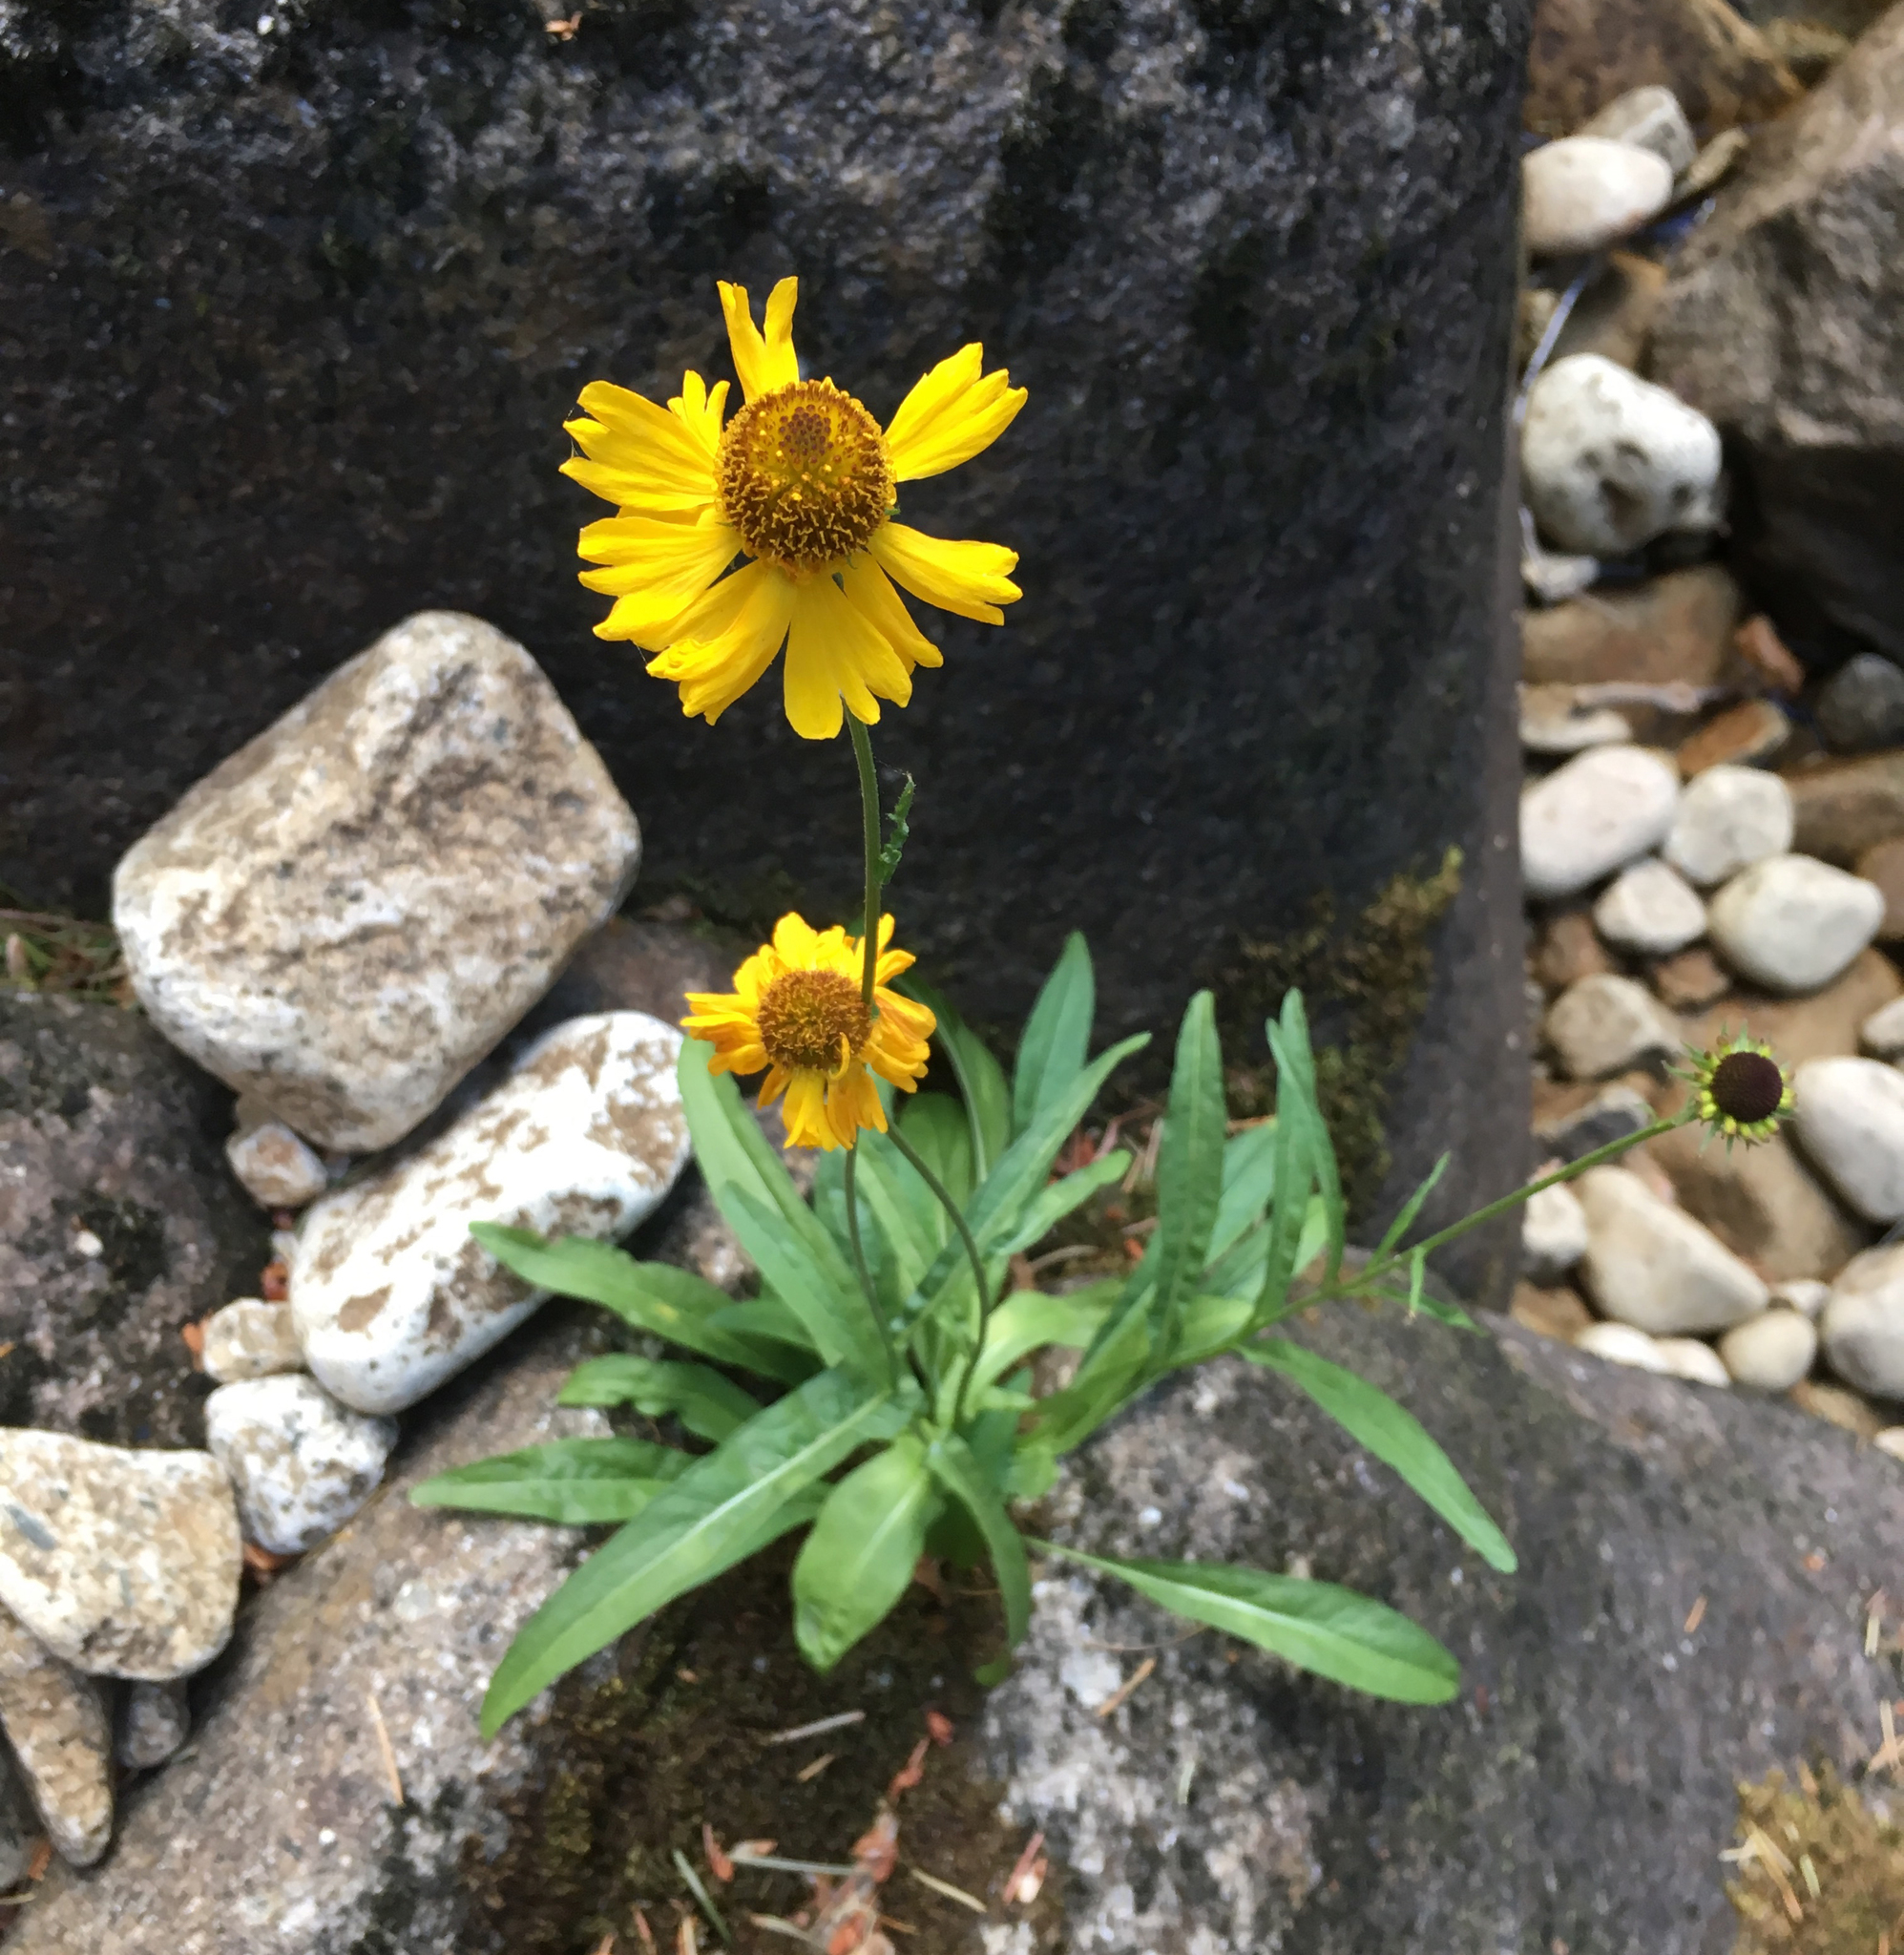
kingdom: Plantae
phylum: Tracheophyta
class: Magnoliopsida
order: Asterales
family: Asteraceae
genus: Helenium
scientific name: Helenium bigelovii
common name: Bigelow's sneezeweed
